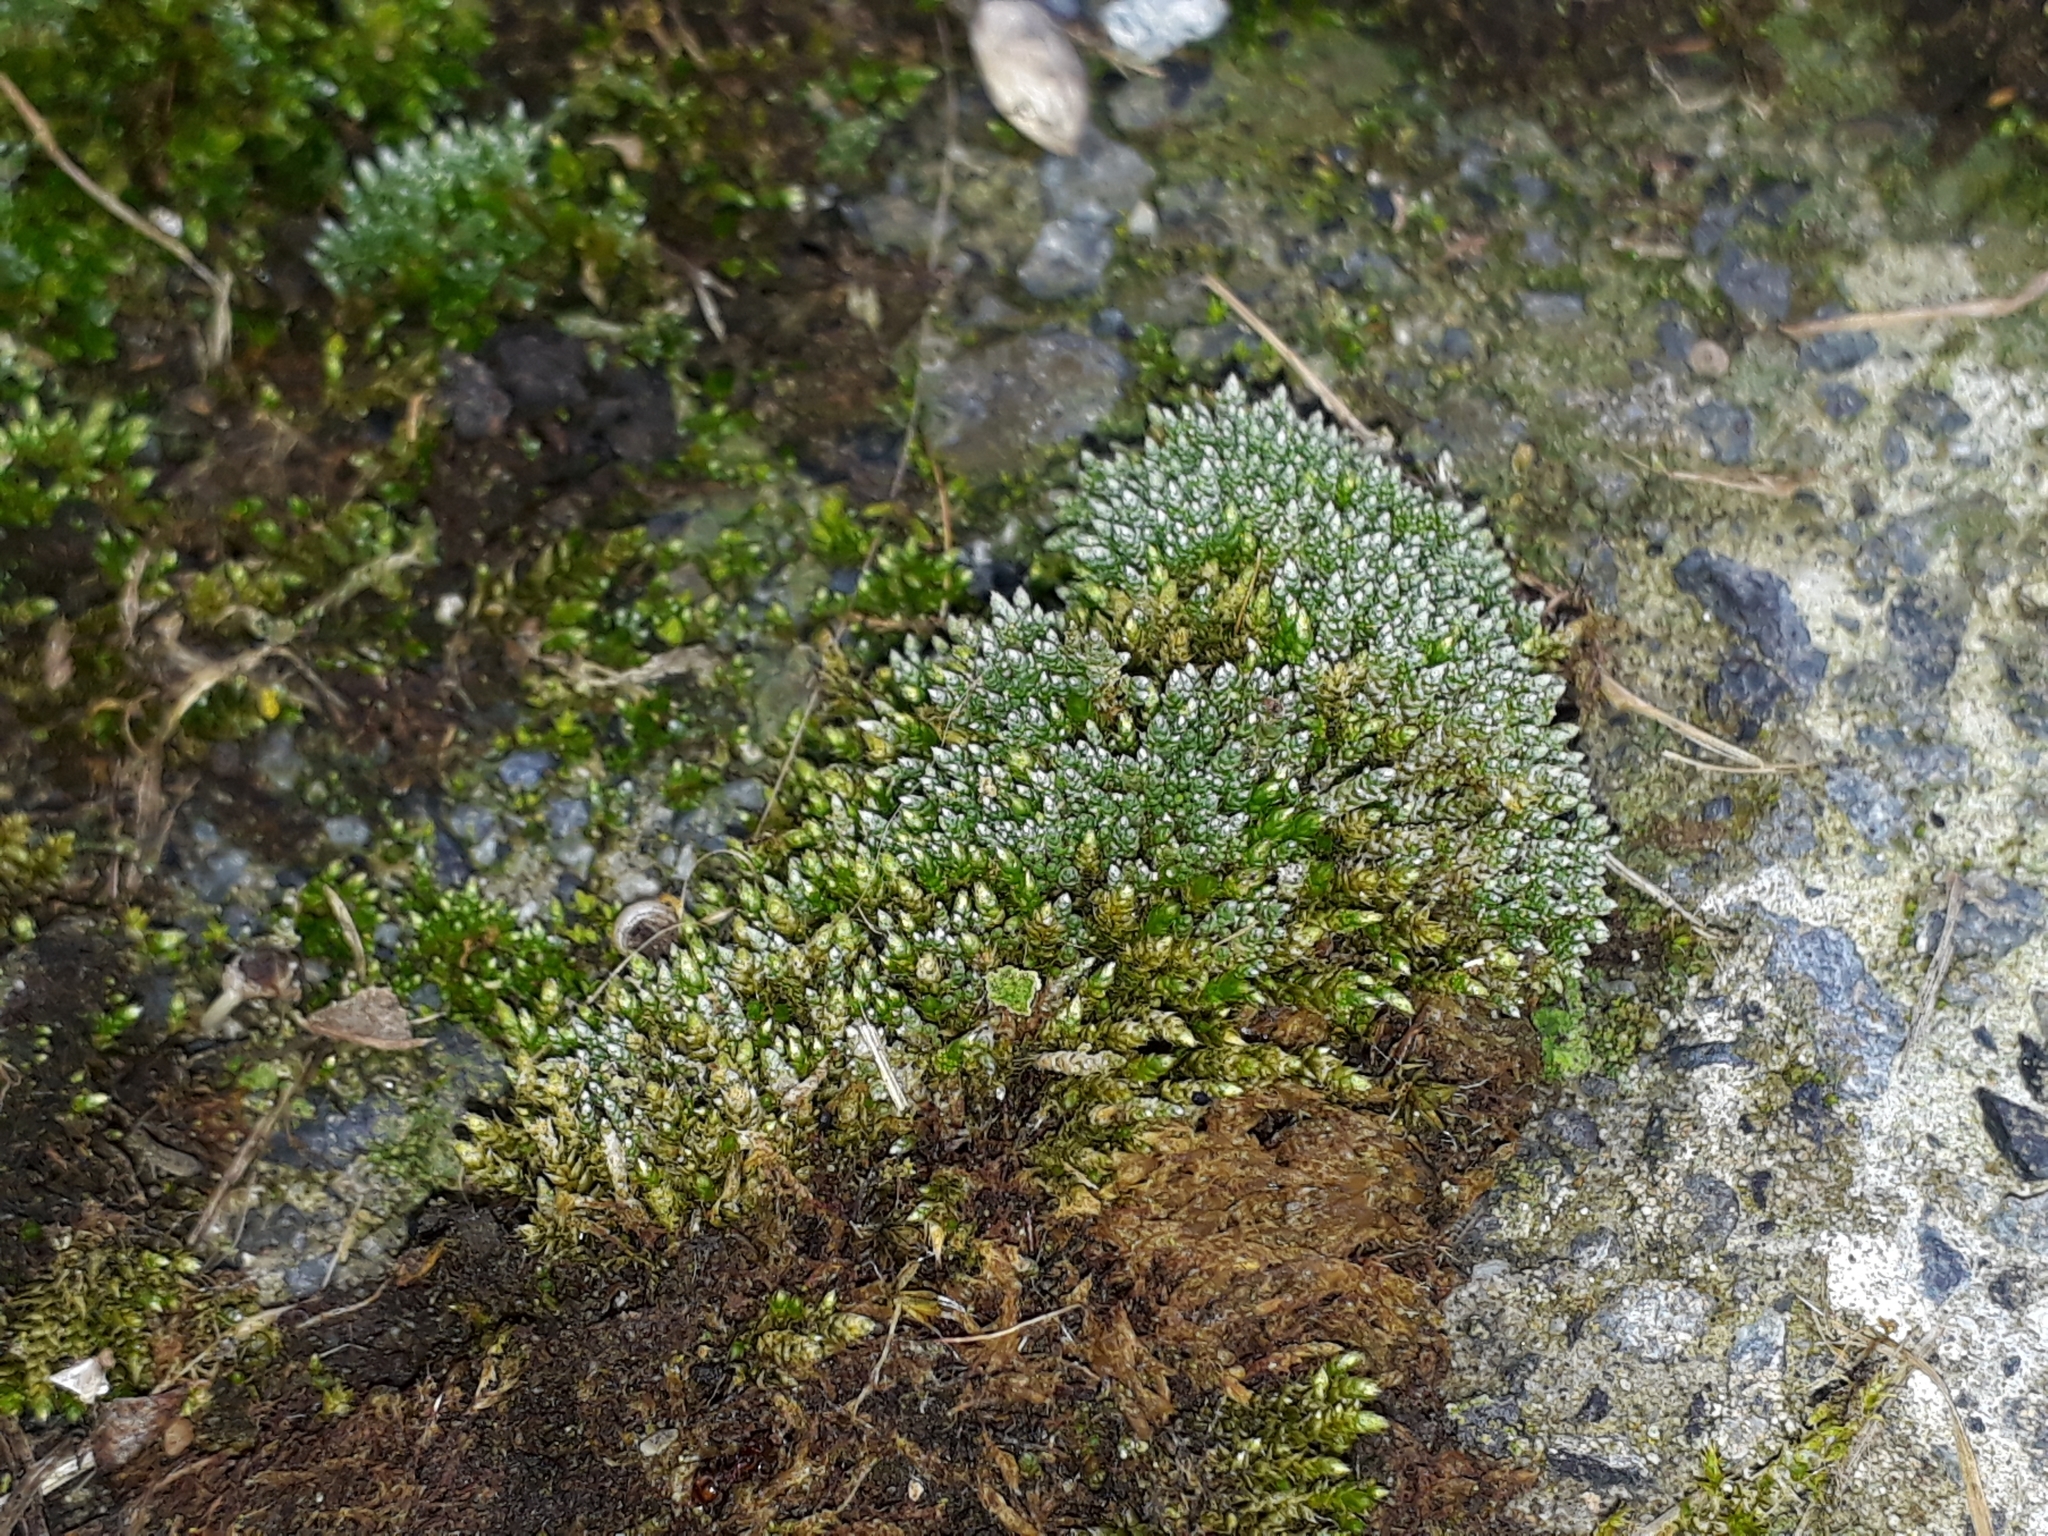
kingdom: Plantae
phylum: Bryophyta
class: Bryopsida
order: Bryales
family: Bryaceae
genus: Bryum
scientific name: Bryum argenteum
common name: Silver-moss
